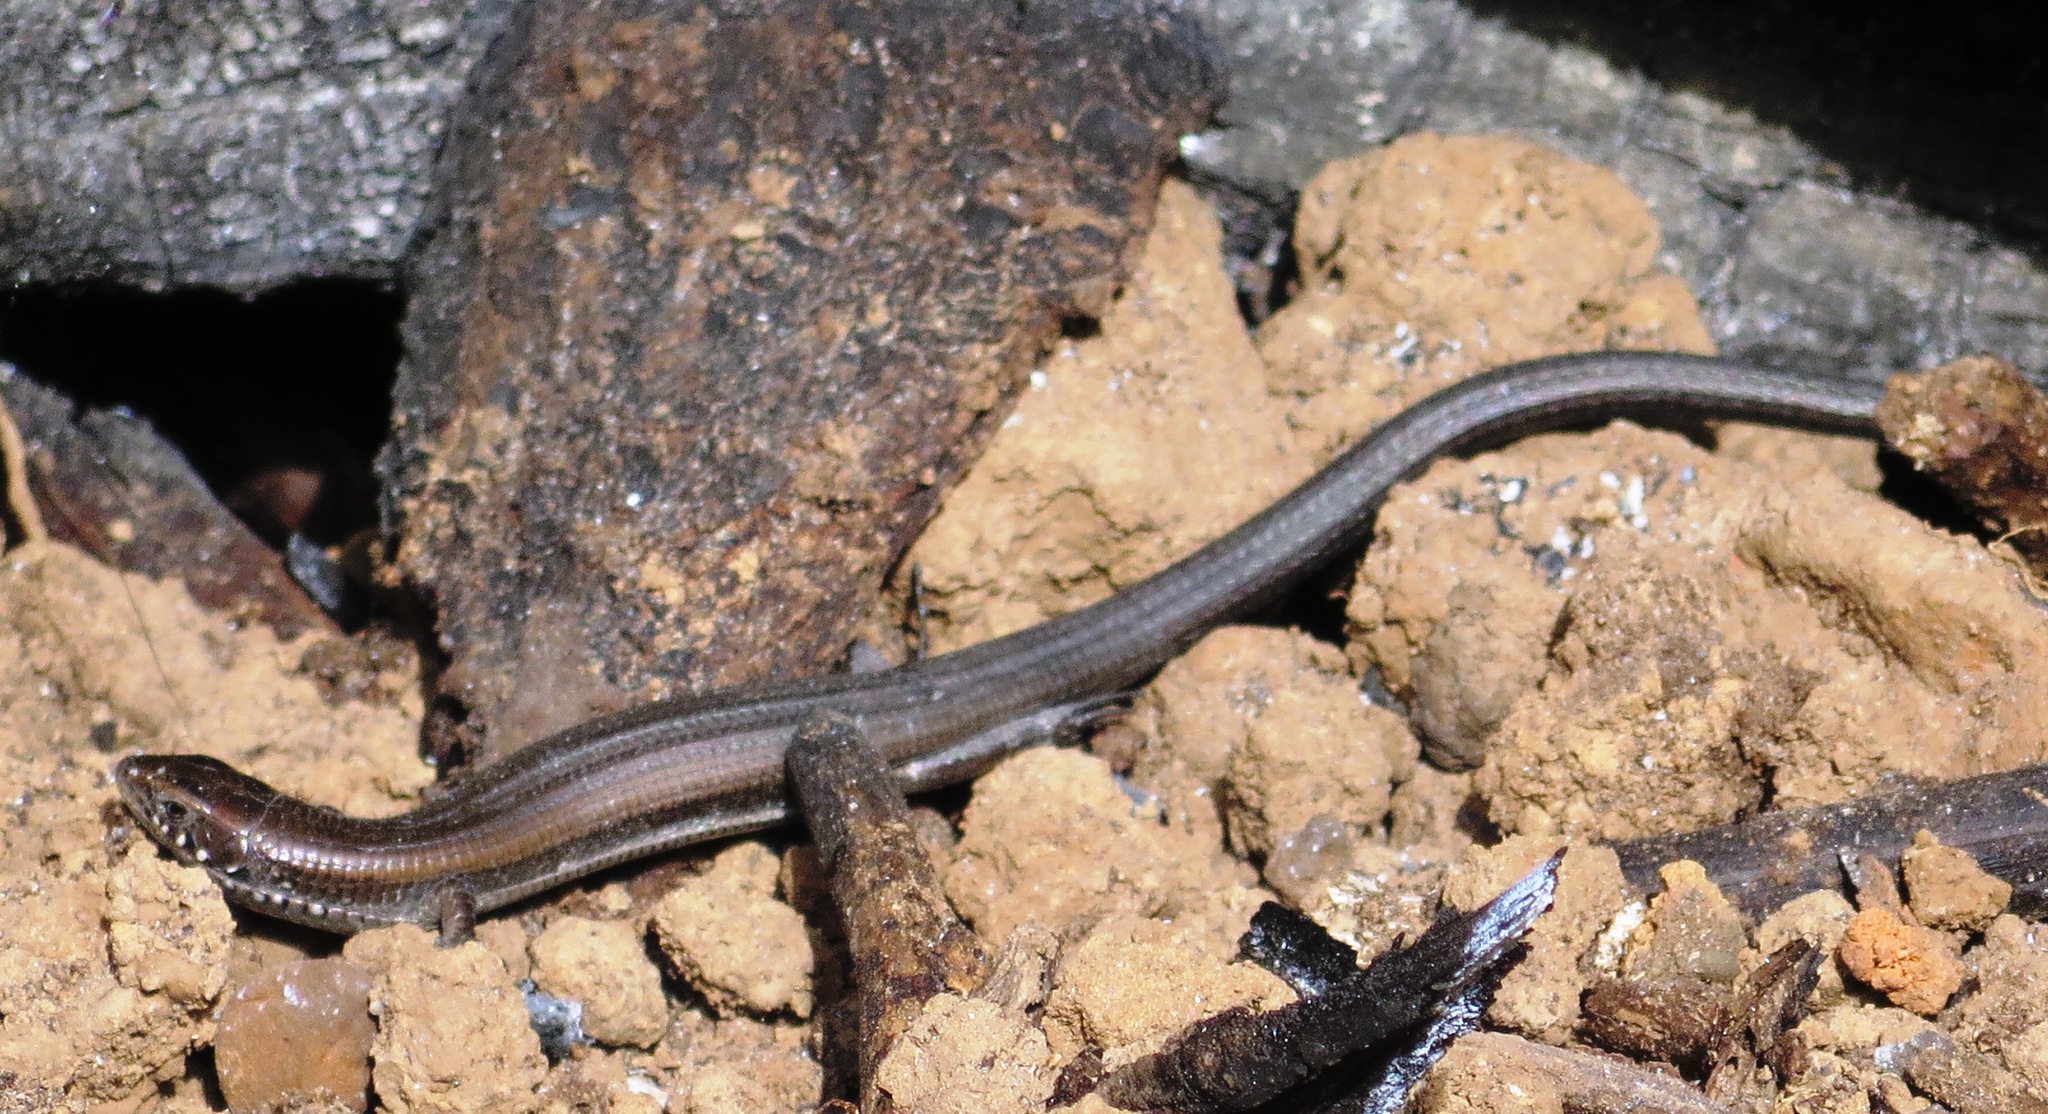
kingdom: Animalia
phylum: Chordata
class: Squamata
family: Gerrhosauridae
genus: Tetradactylus
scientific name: Tetradactylus seps
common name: Five-toed whip lizard
